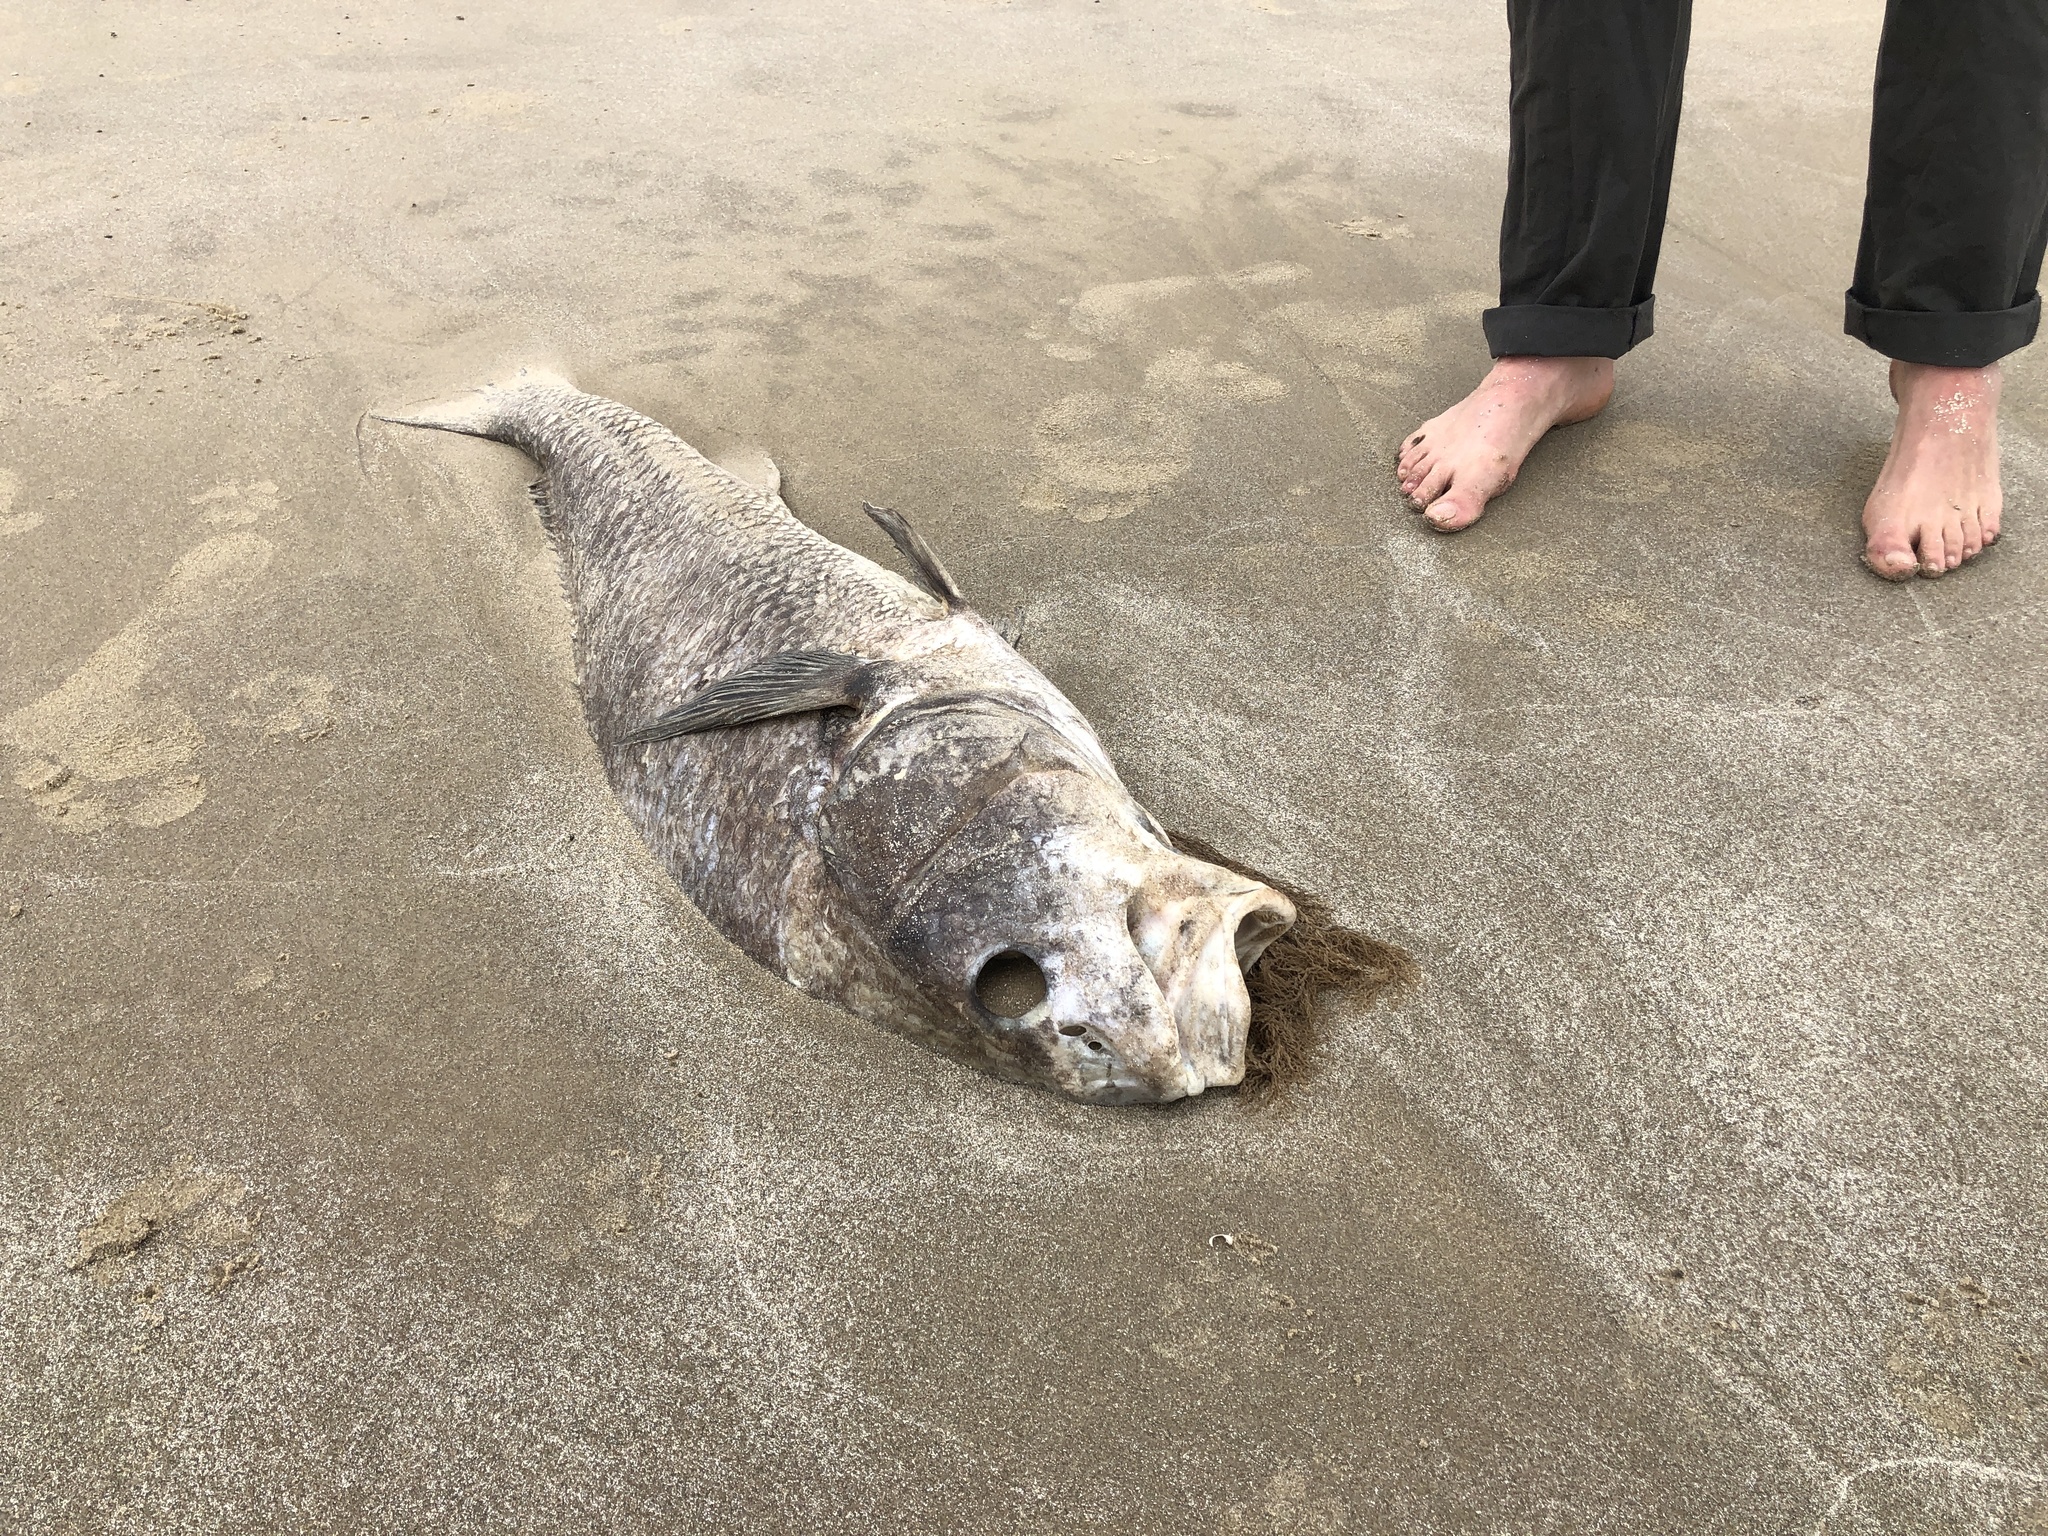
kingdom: Animalia
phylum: Chordata
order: Perciformes
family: Sciaenidae
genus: Pogonias
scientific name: Pogonias cromis
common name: Black drum
